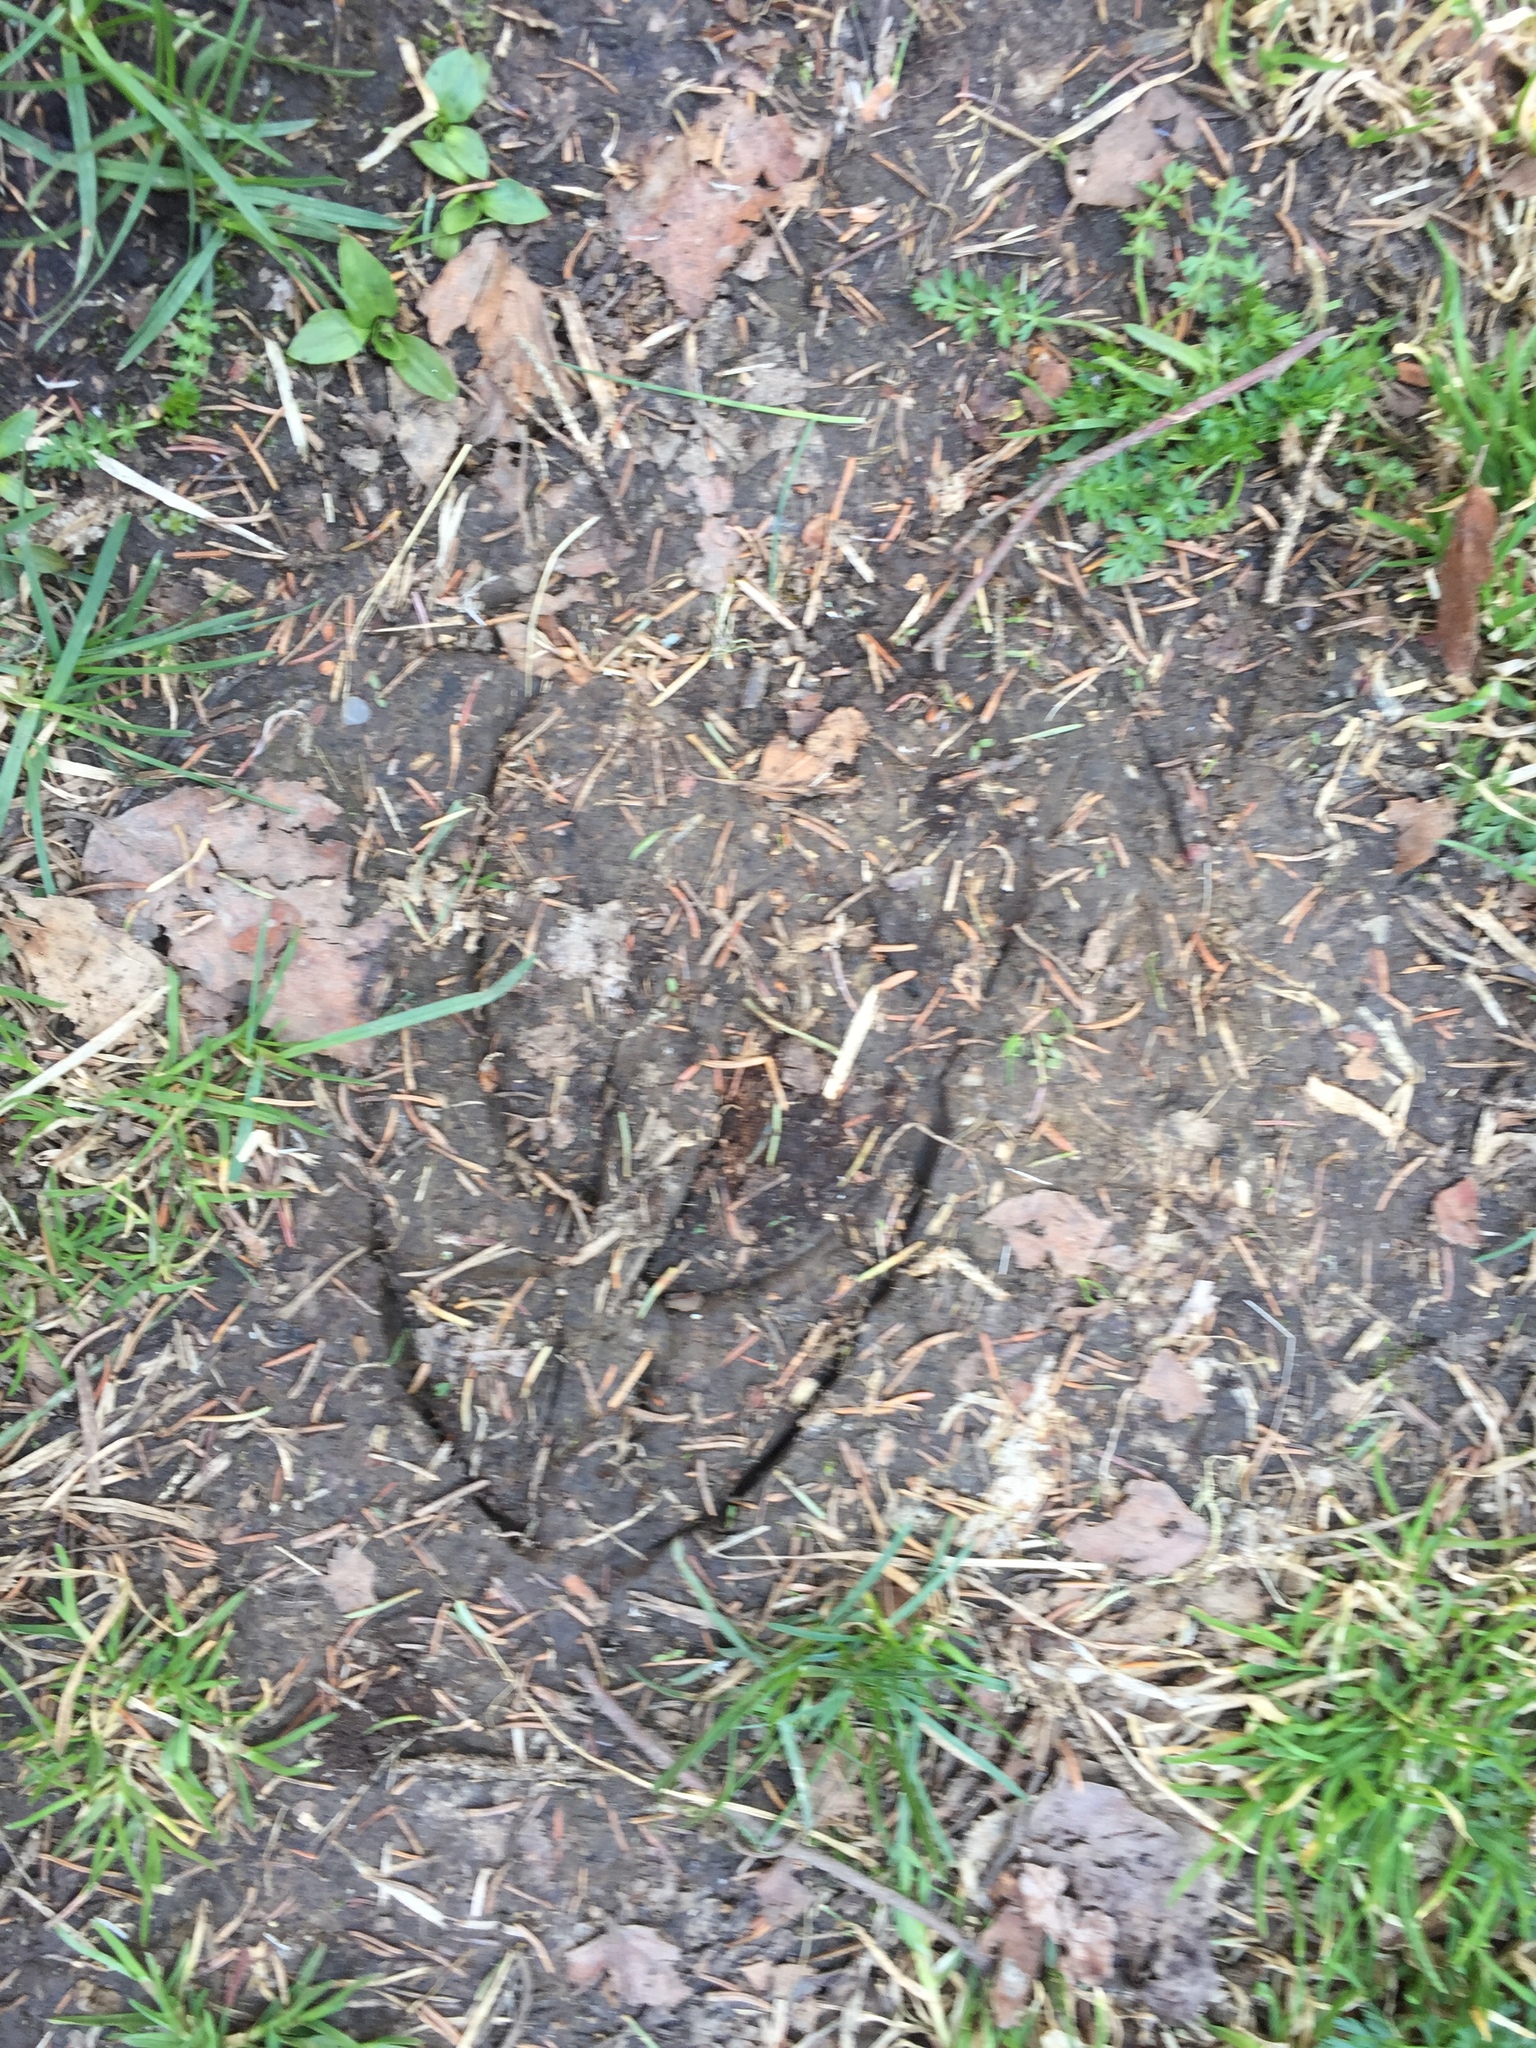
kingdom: Animalia
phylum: Chordata
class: Mammalia
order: Artiodactyla
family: Cervidae
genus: Alces
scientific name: Alces alces
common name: Moose
